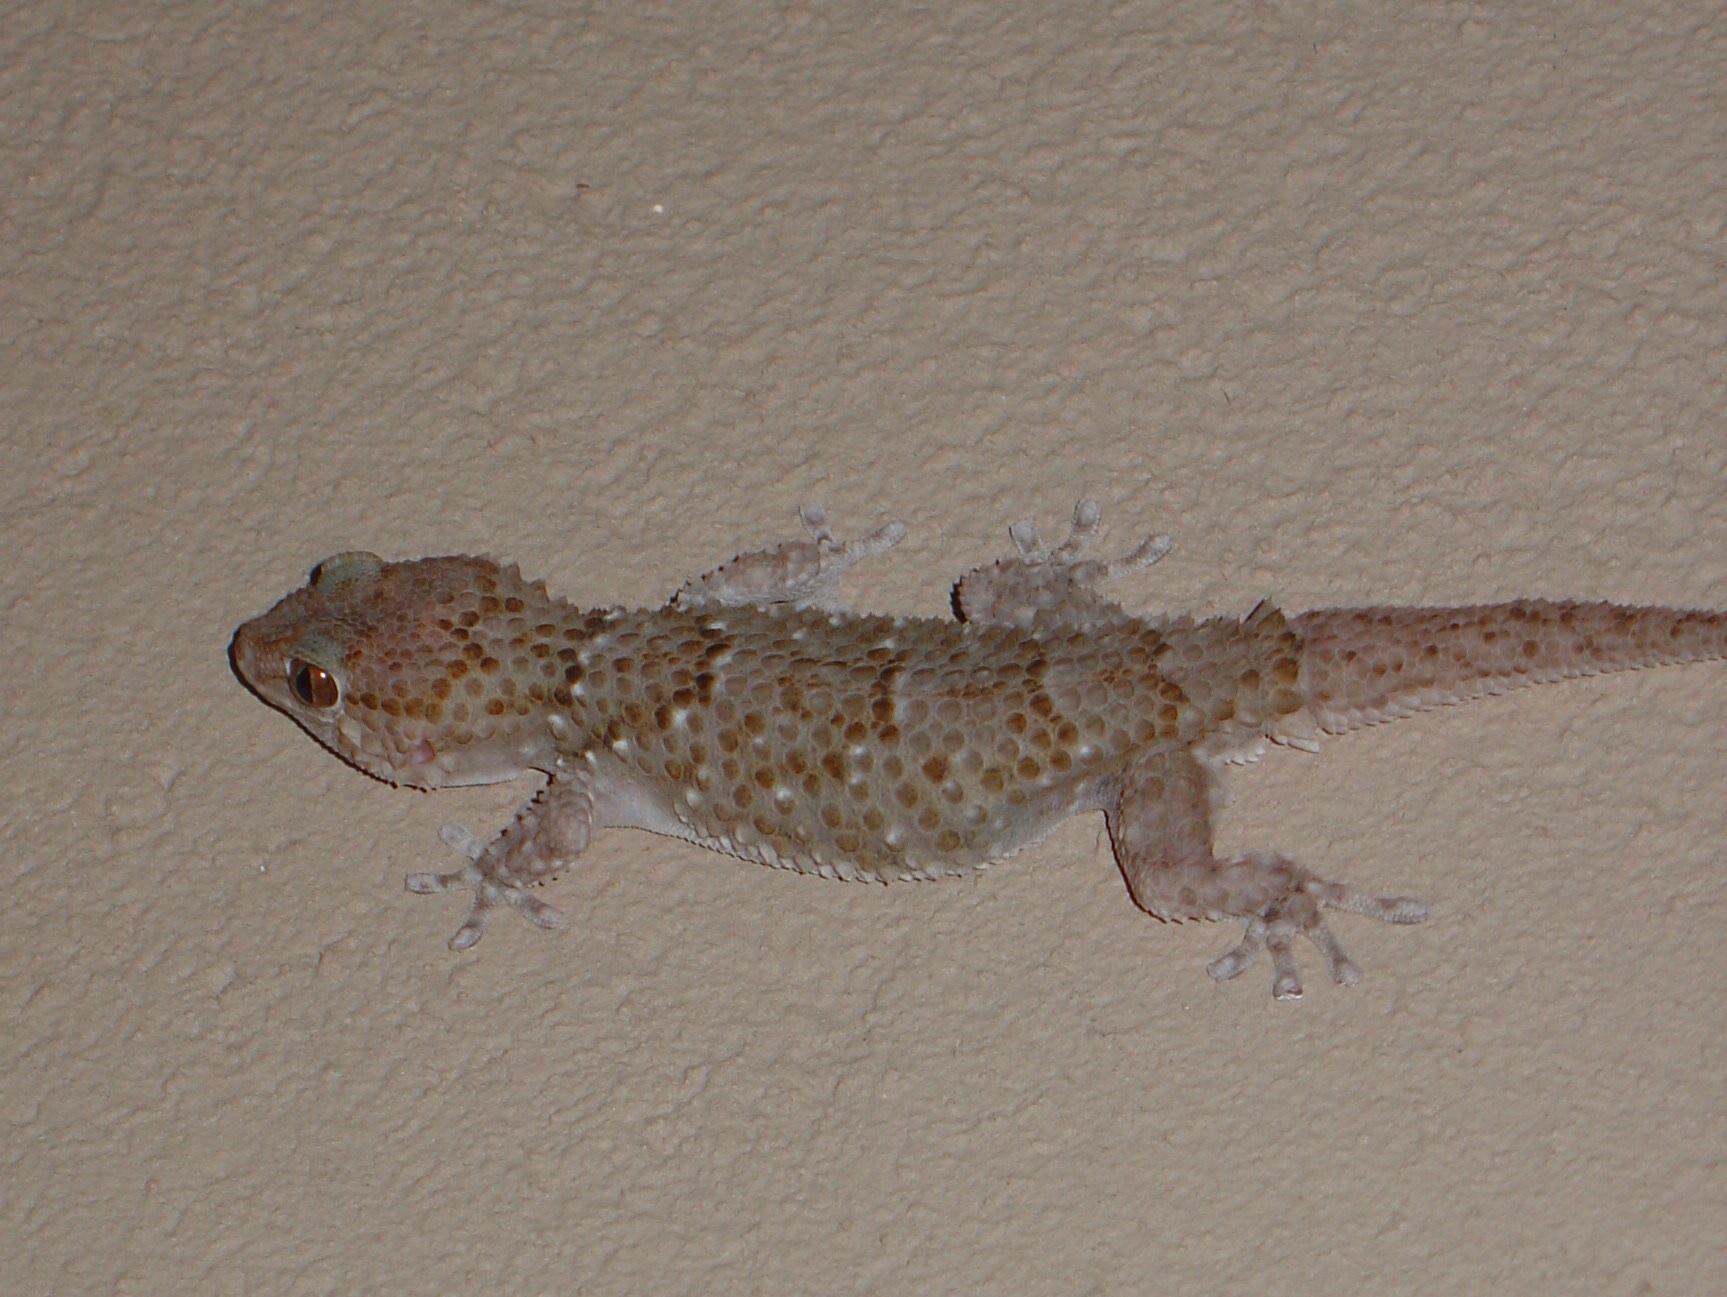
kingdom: Animalia
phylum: Chordata
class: Squamata
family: Gekkonidae
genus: Chondrodactylus
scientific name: Chondrodactylus bibronii
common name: Bibron's gecko
